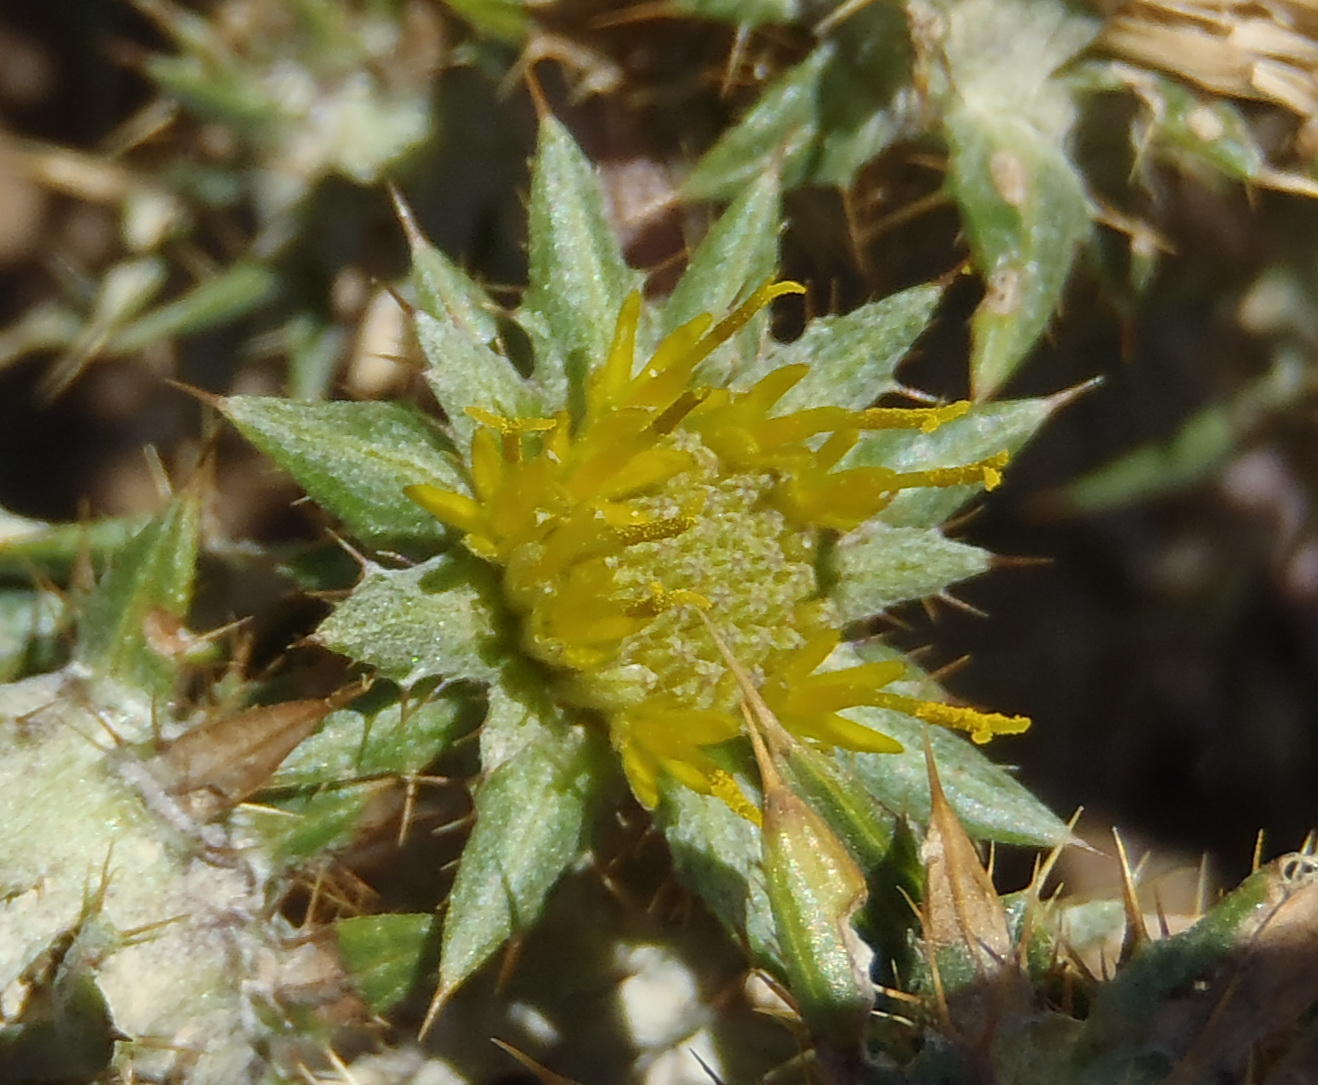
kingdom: Plantae
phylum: Tracheophyta
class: Magnoliopsida
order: Asterales
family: Asteraceae
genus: Berkheya
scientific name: Berkheya pinnatifida
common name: Lobed african thistle
